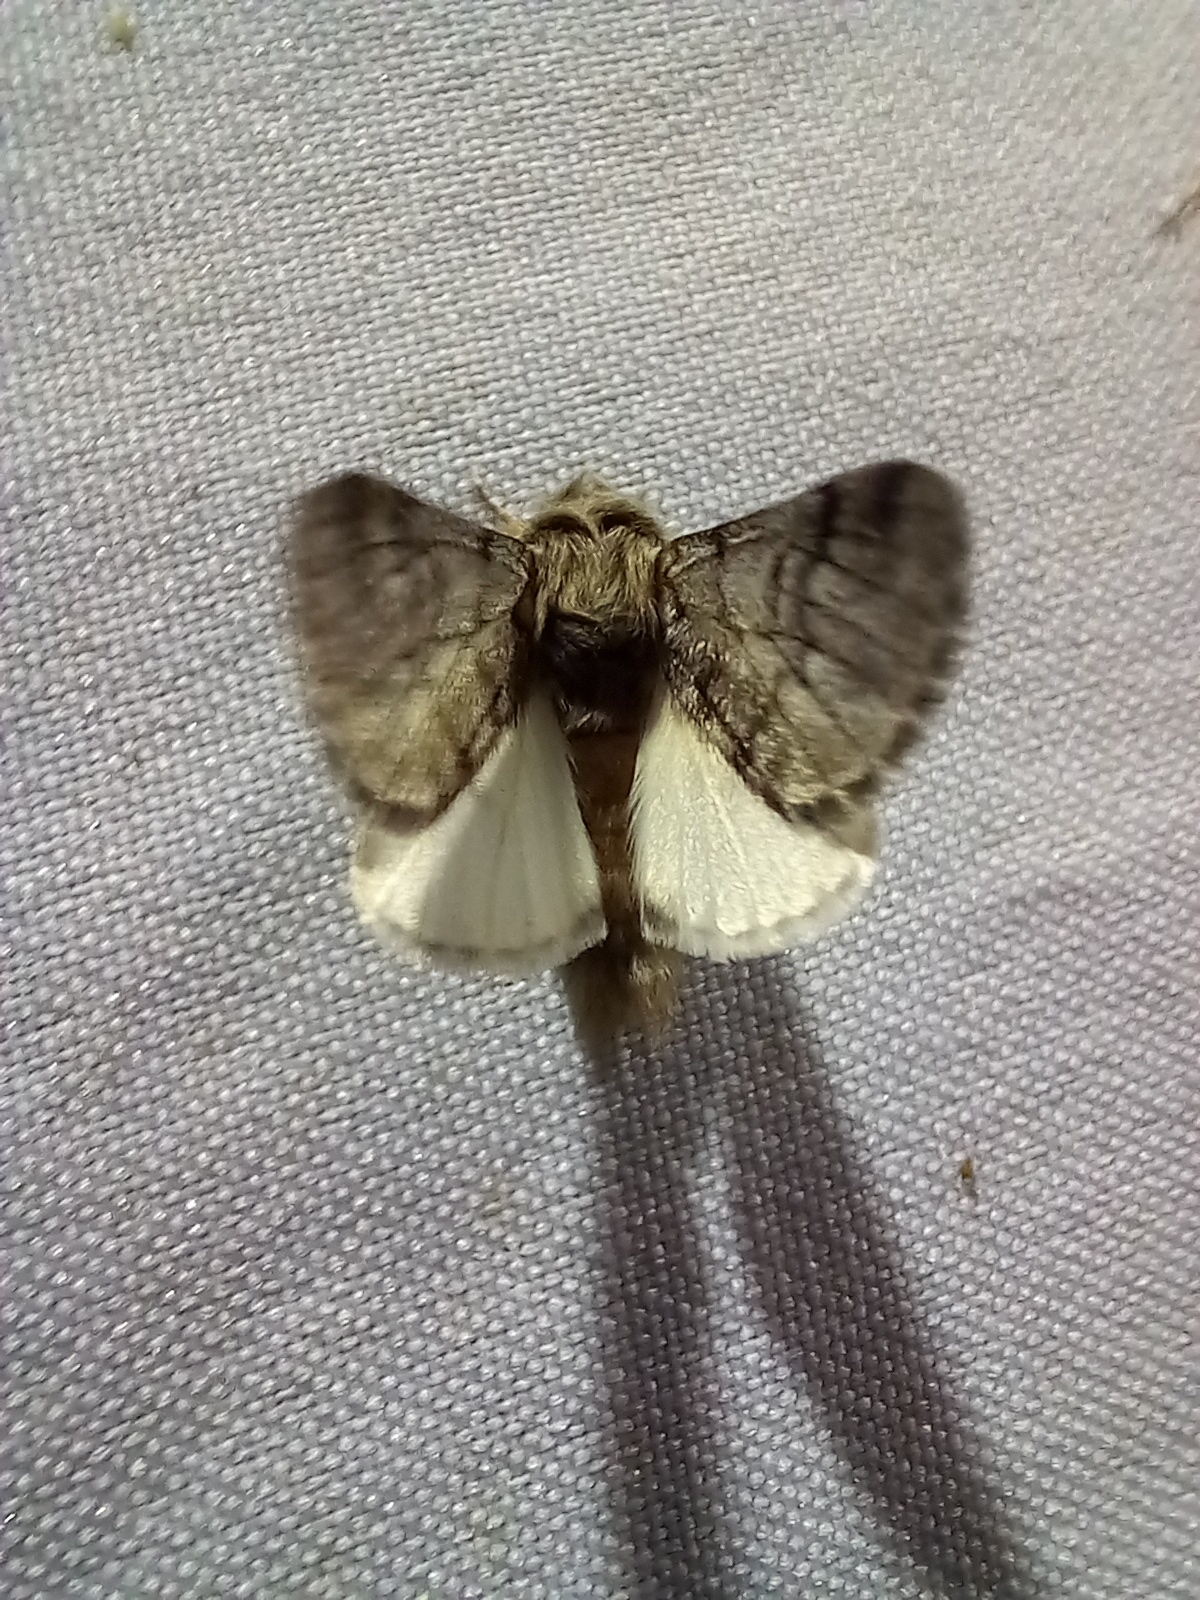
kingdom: Animalia
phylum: Arthropoda
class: Insecta
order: Lepidoptera
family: Notodontidae
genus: Thaumetopoea
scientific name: Thaumetopoea pityocampa
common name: Pine processionary
